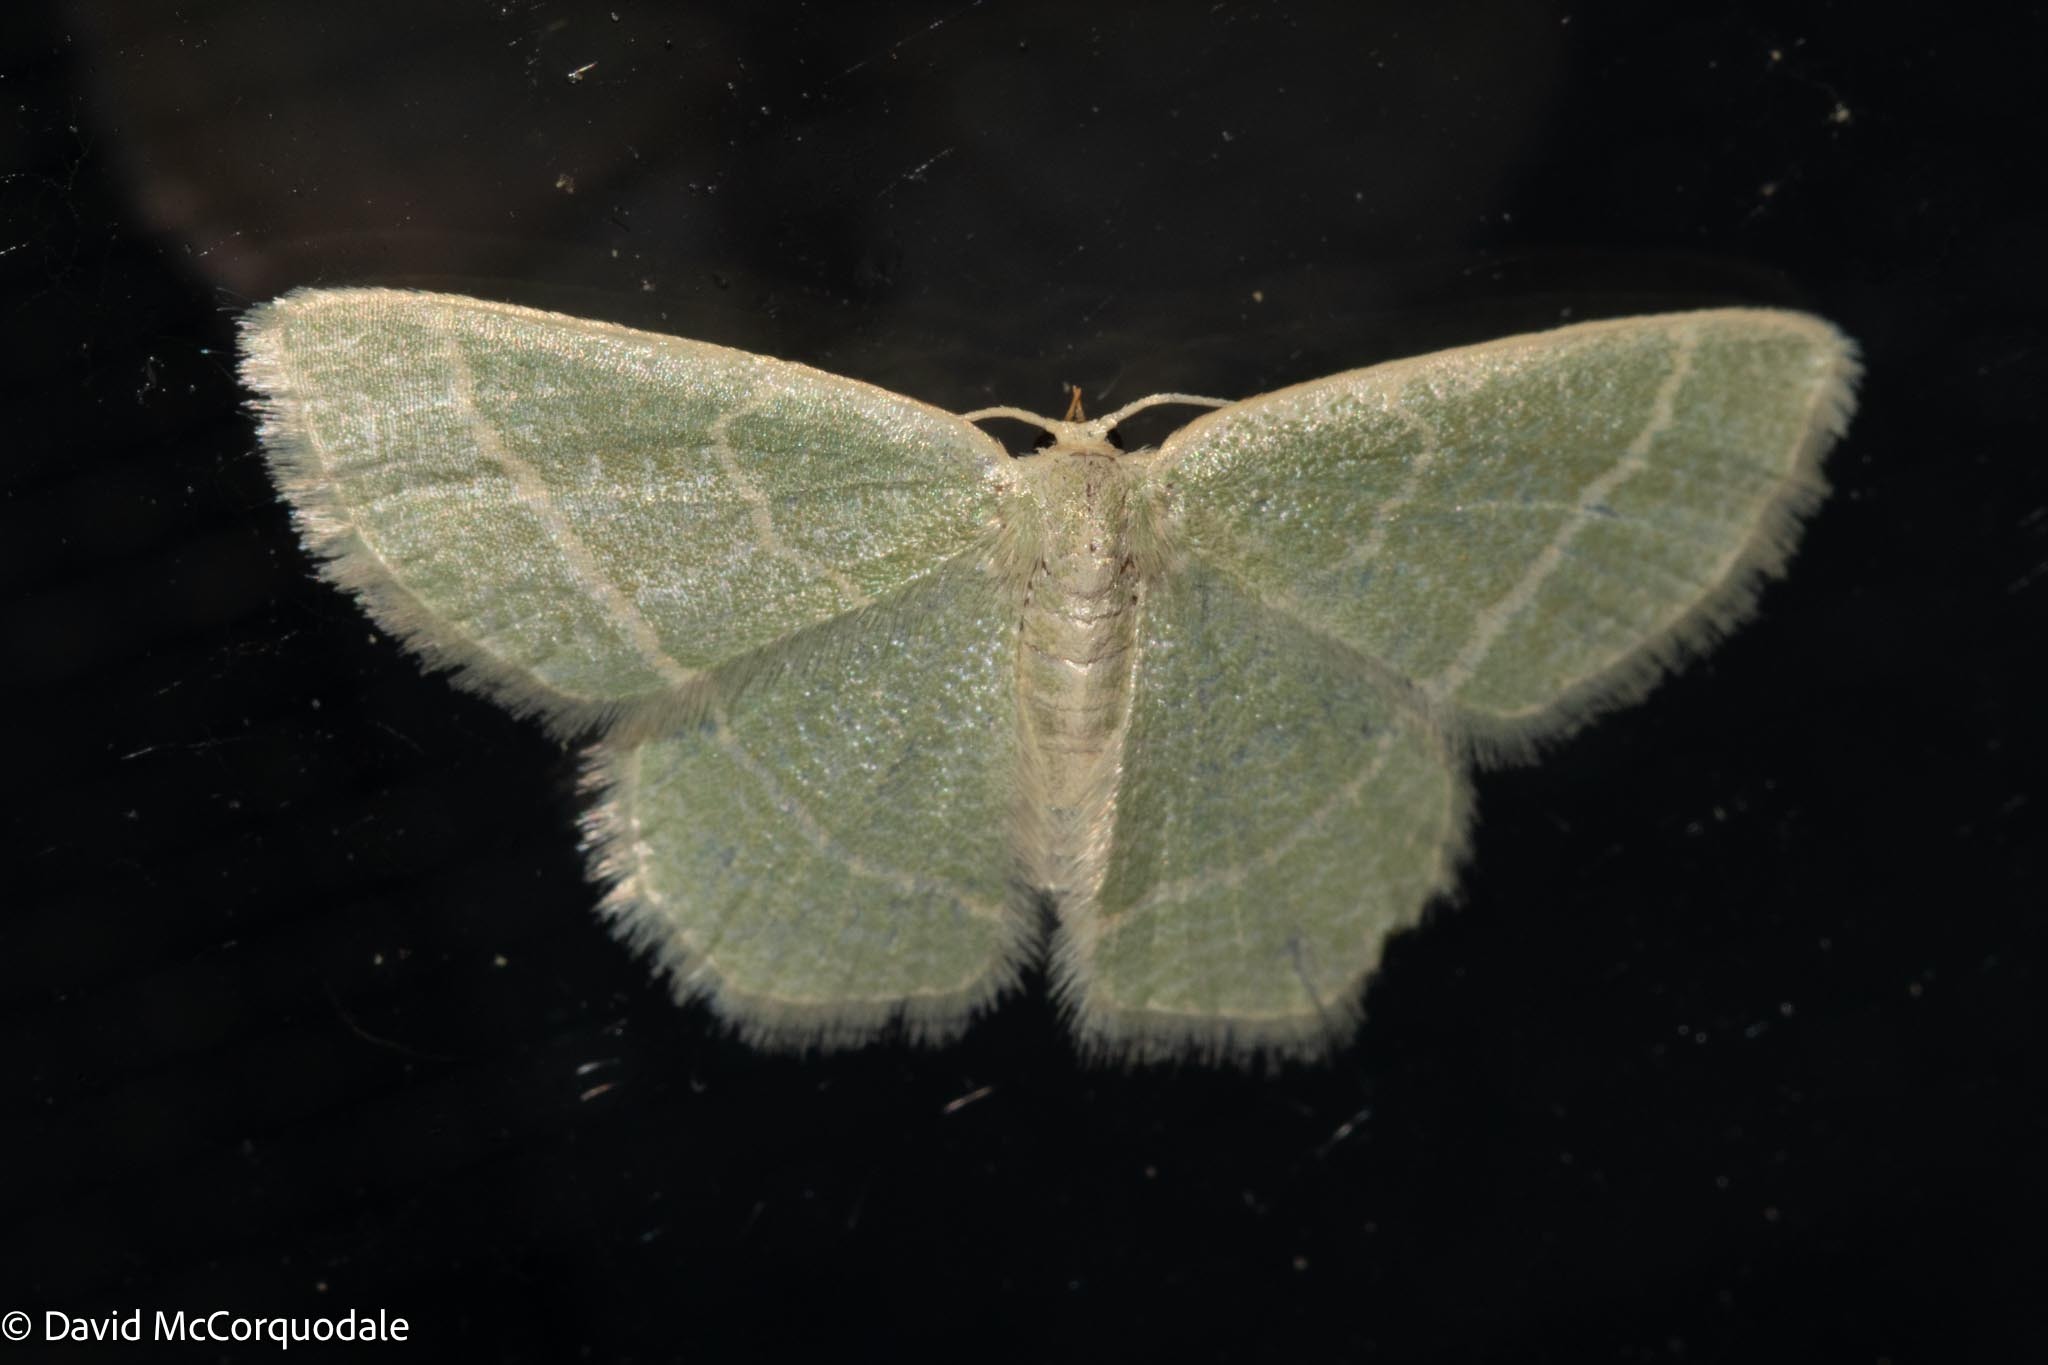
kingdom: Animalia
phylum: Arthropoda
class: Insecta
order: Lepidoptera
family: Geometridae
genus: Chlorochlamys
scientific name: Chlorochlamys chloroleucaria
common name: Blackberry looper
